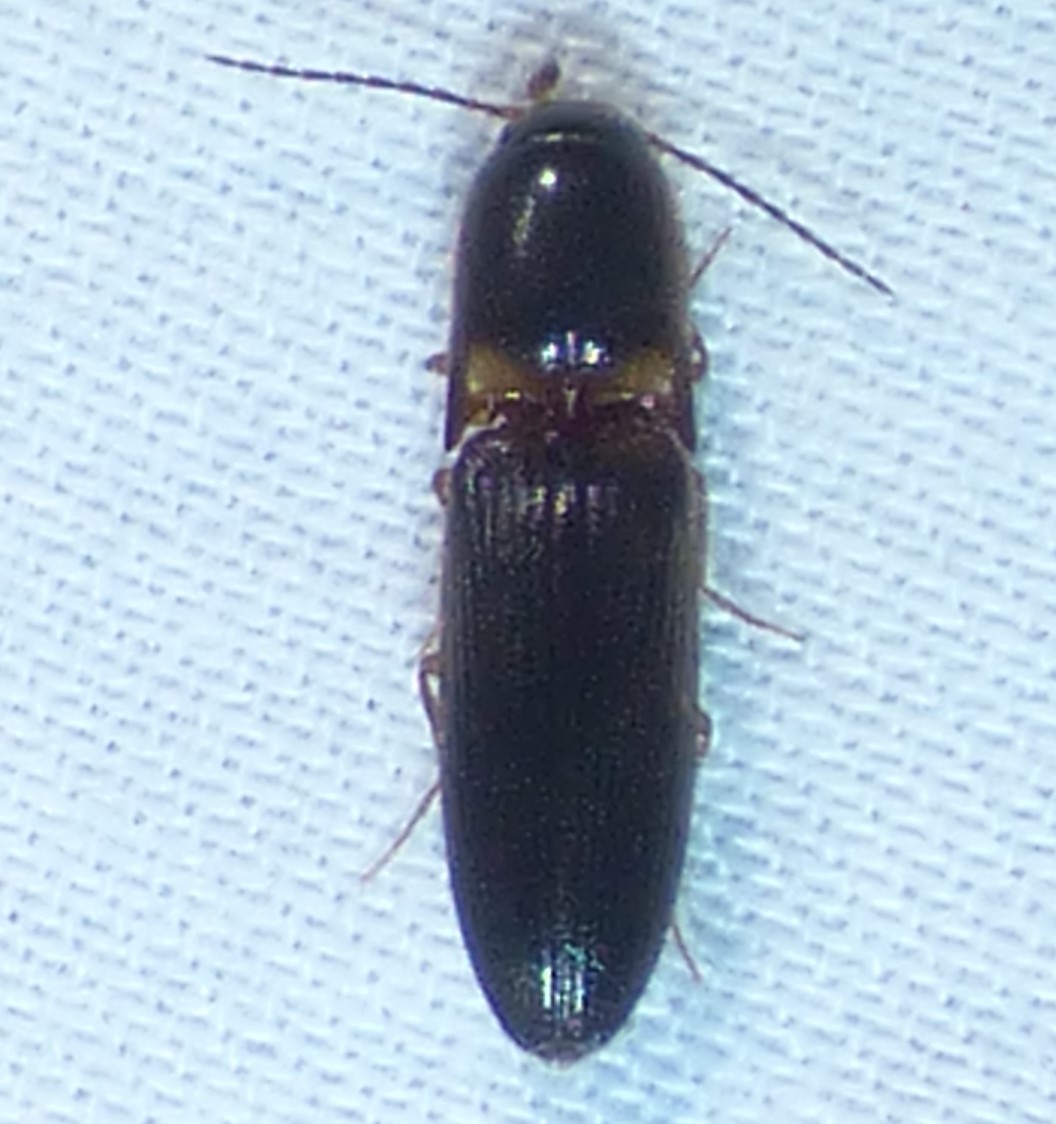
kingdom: Animalia
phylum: Arthropoda
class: Insecta
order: Coleoptera
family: Elateridae
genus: Megapenthes
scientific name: Megapenthes
